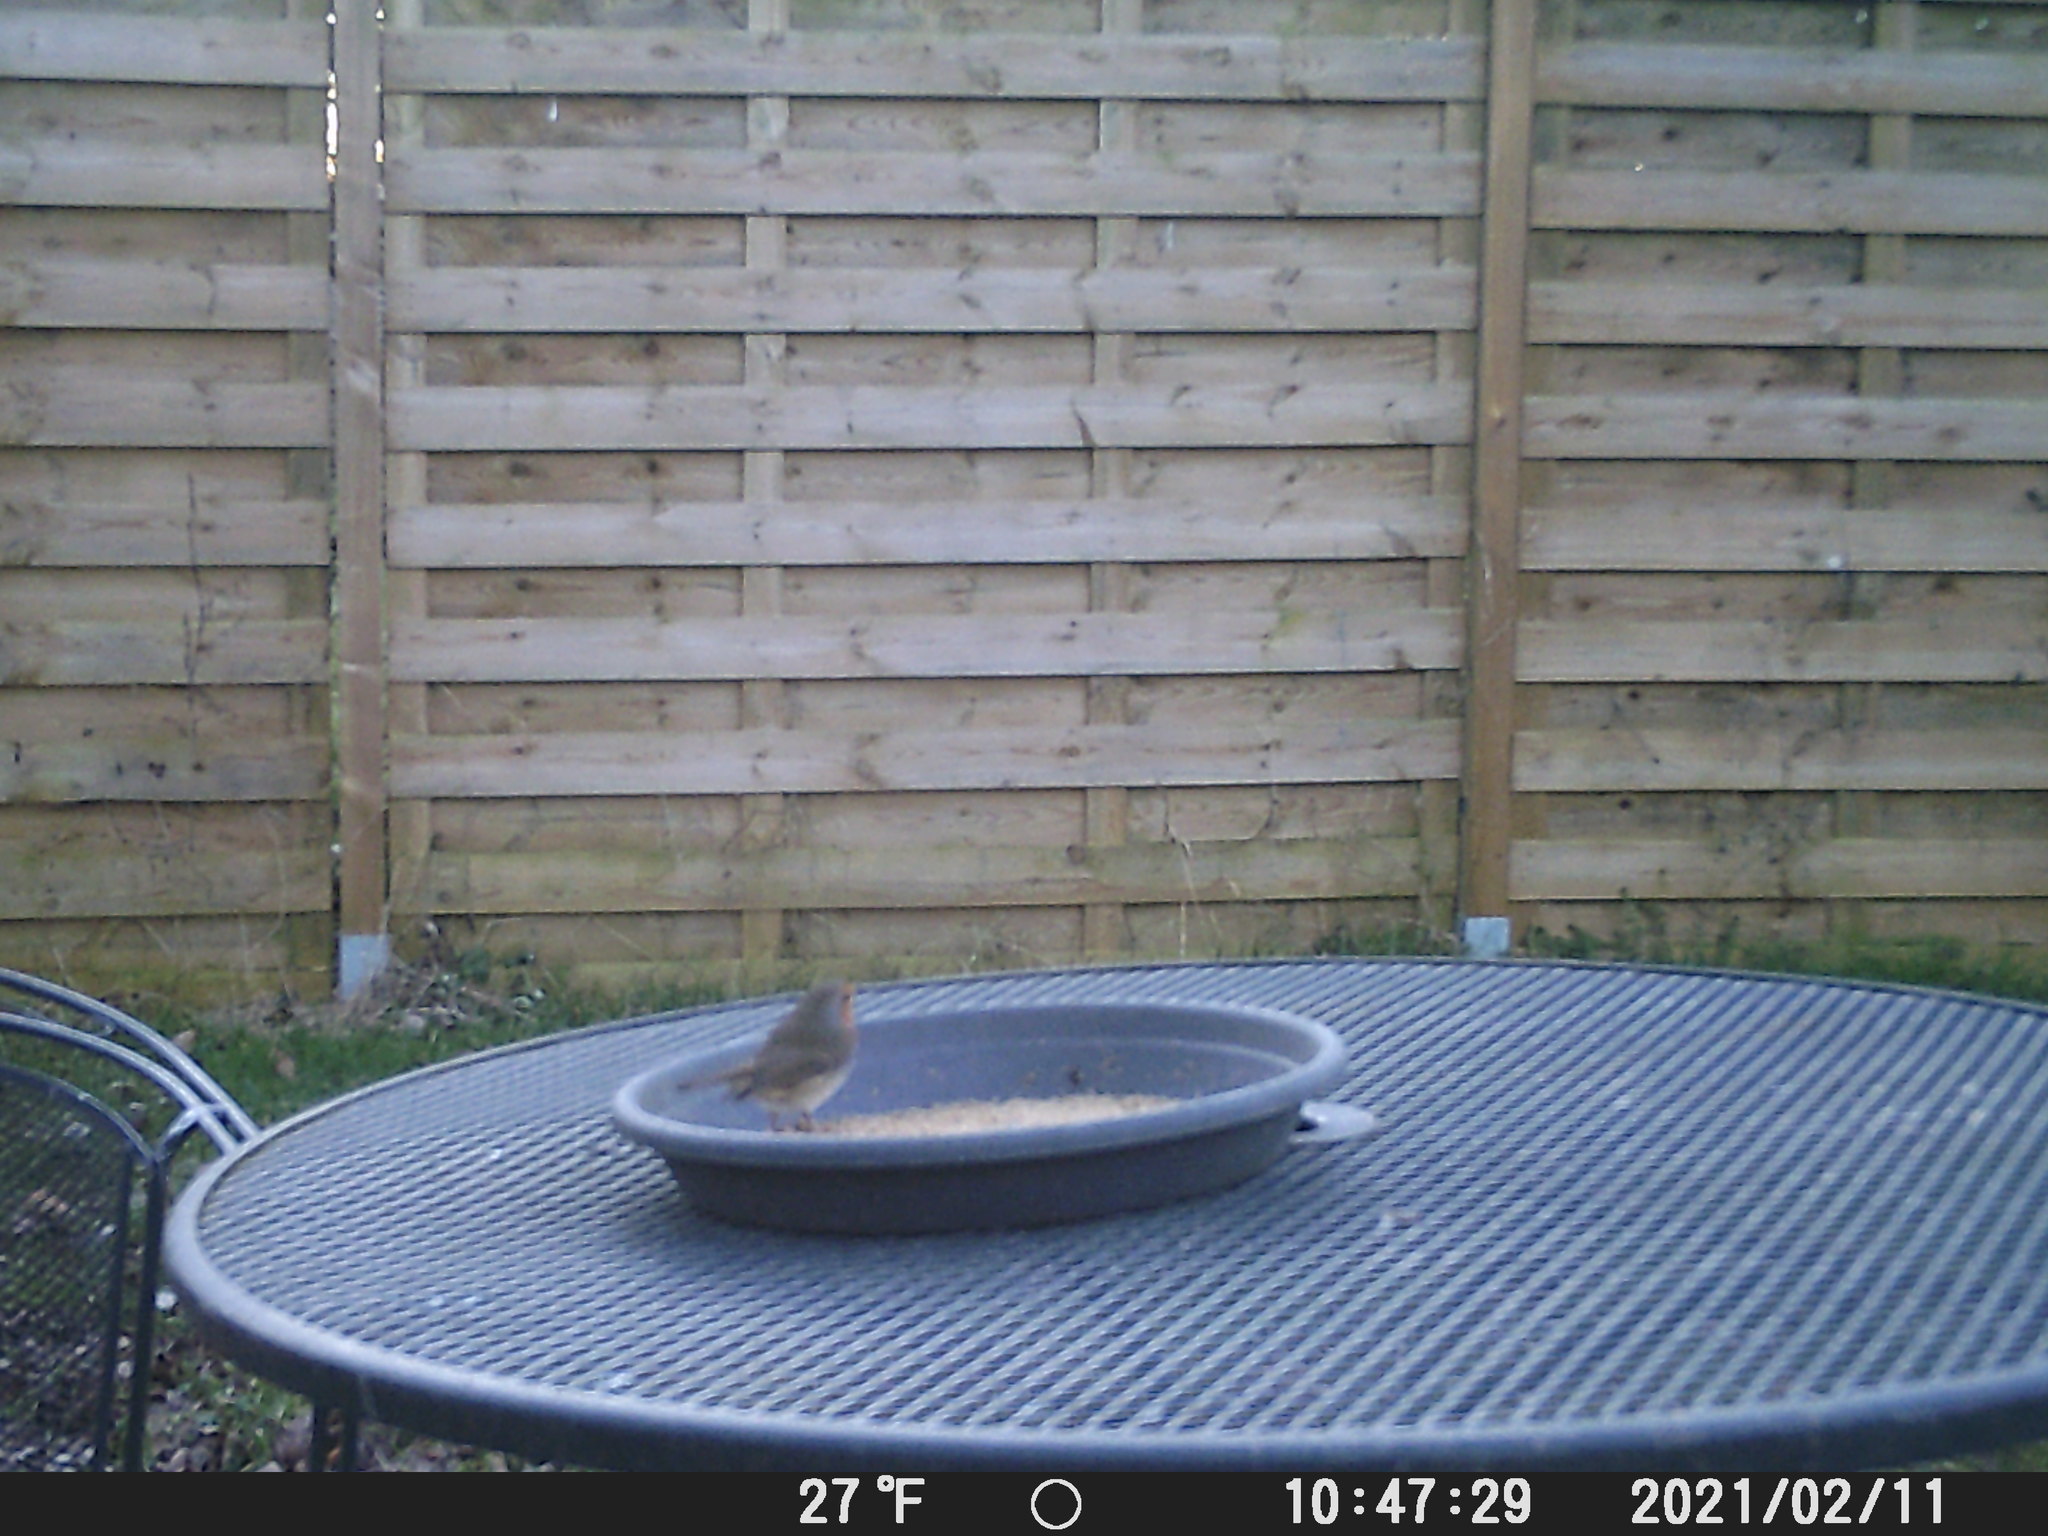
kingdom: Animalia
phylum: Chordata
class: Aves
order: Passeriformes
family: Muscicapidae
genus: Erithacus
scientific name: Erithacus rubecula
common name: European robin
